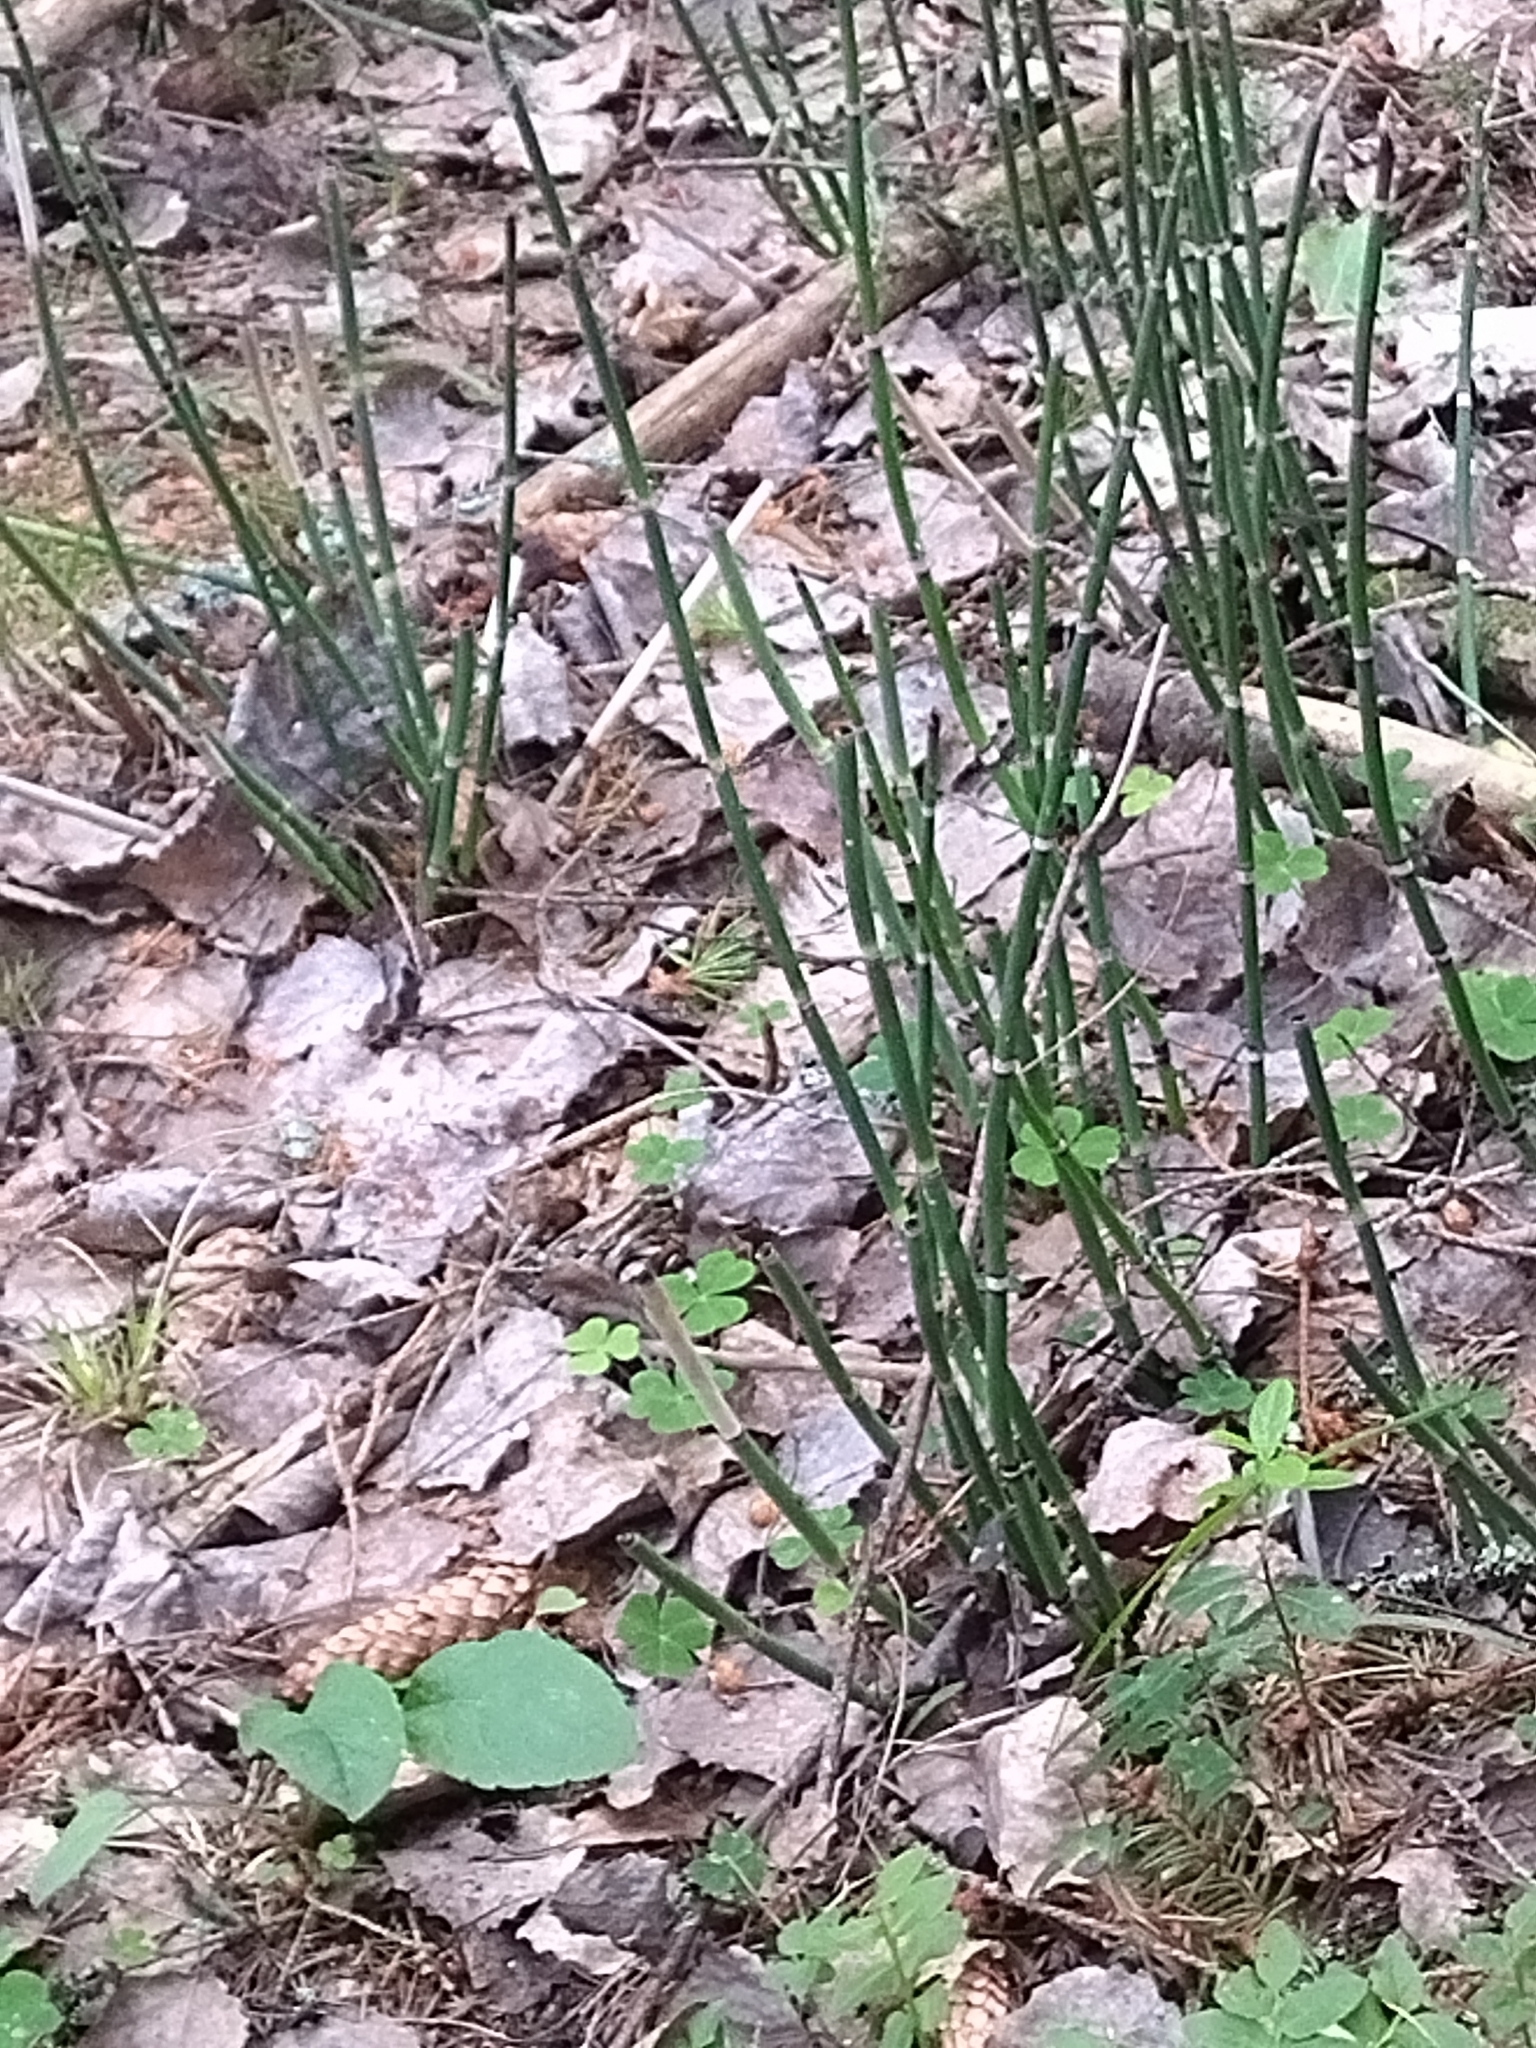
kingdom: Plantae
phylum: Tracheophyta
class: Polypodiopsida
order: Equisetales
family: Equisetaceae
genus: Equisetum
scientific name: Equisetum hyemale
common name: Rough horsetail
